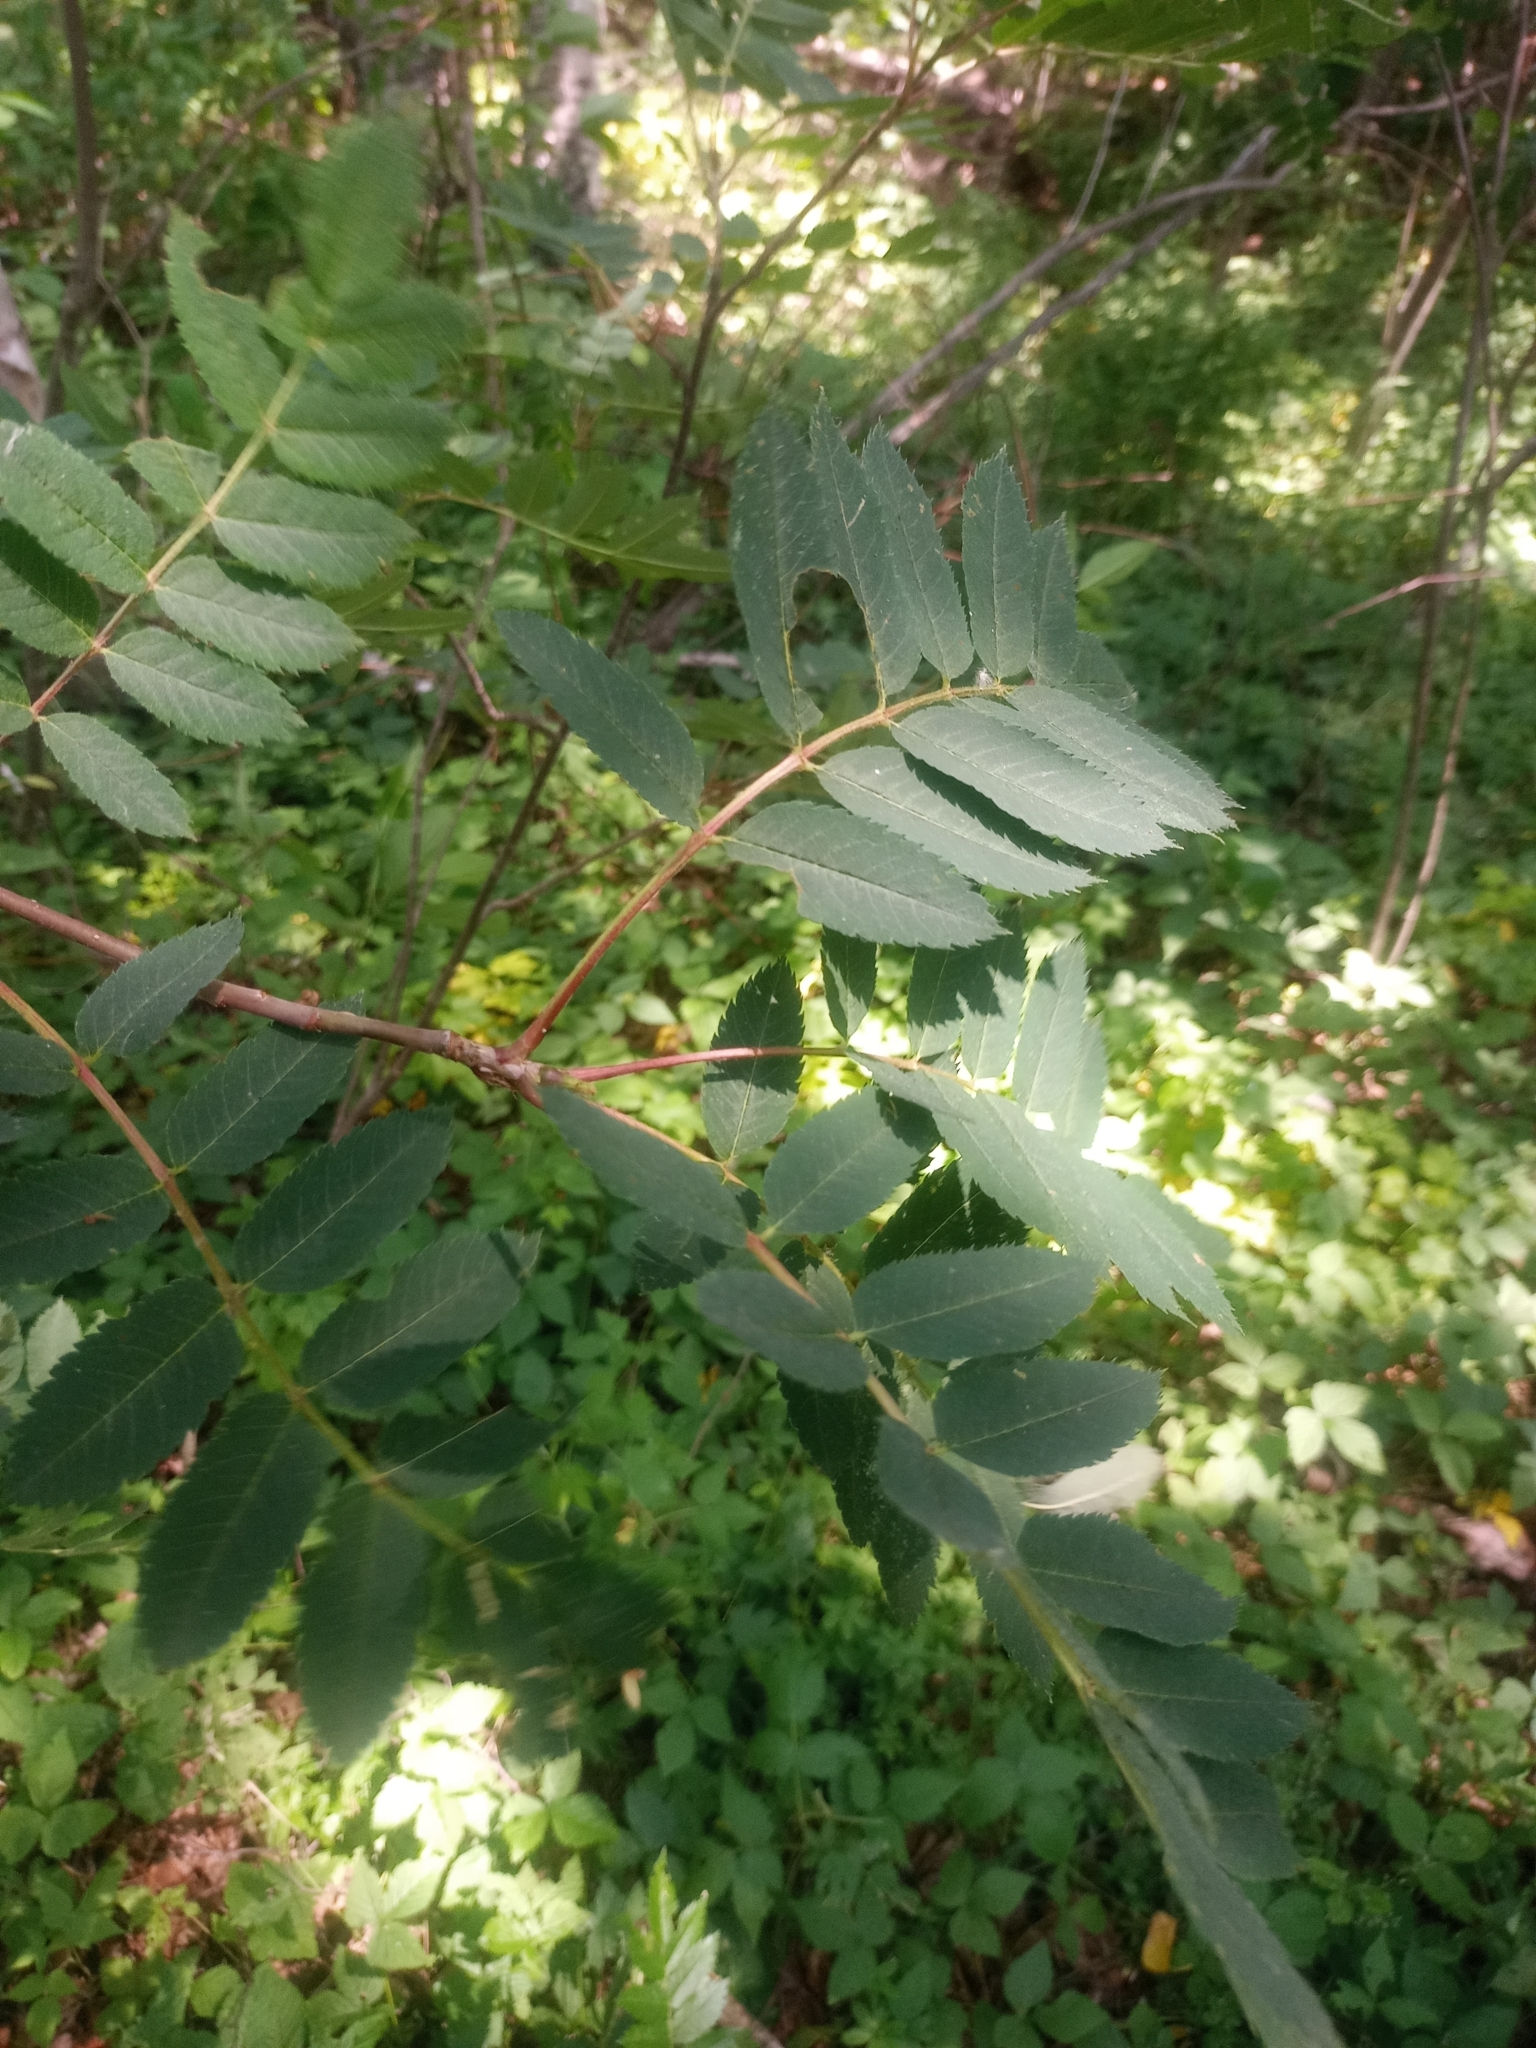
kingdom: Plantae
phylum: Tracheophyta
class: Magnoliopsida
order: Rosales
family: Rosaceae
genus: Sorbus
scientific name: Sorbus decora
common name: Northern mountain-ash
